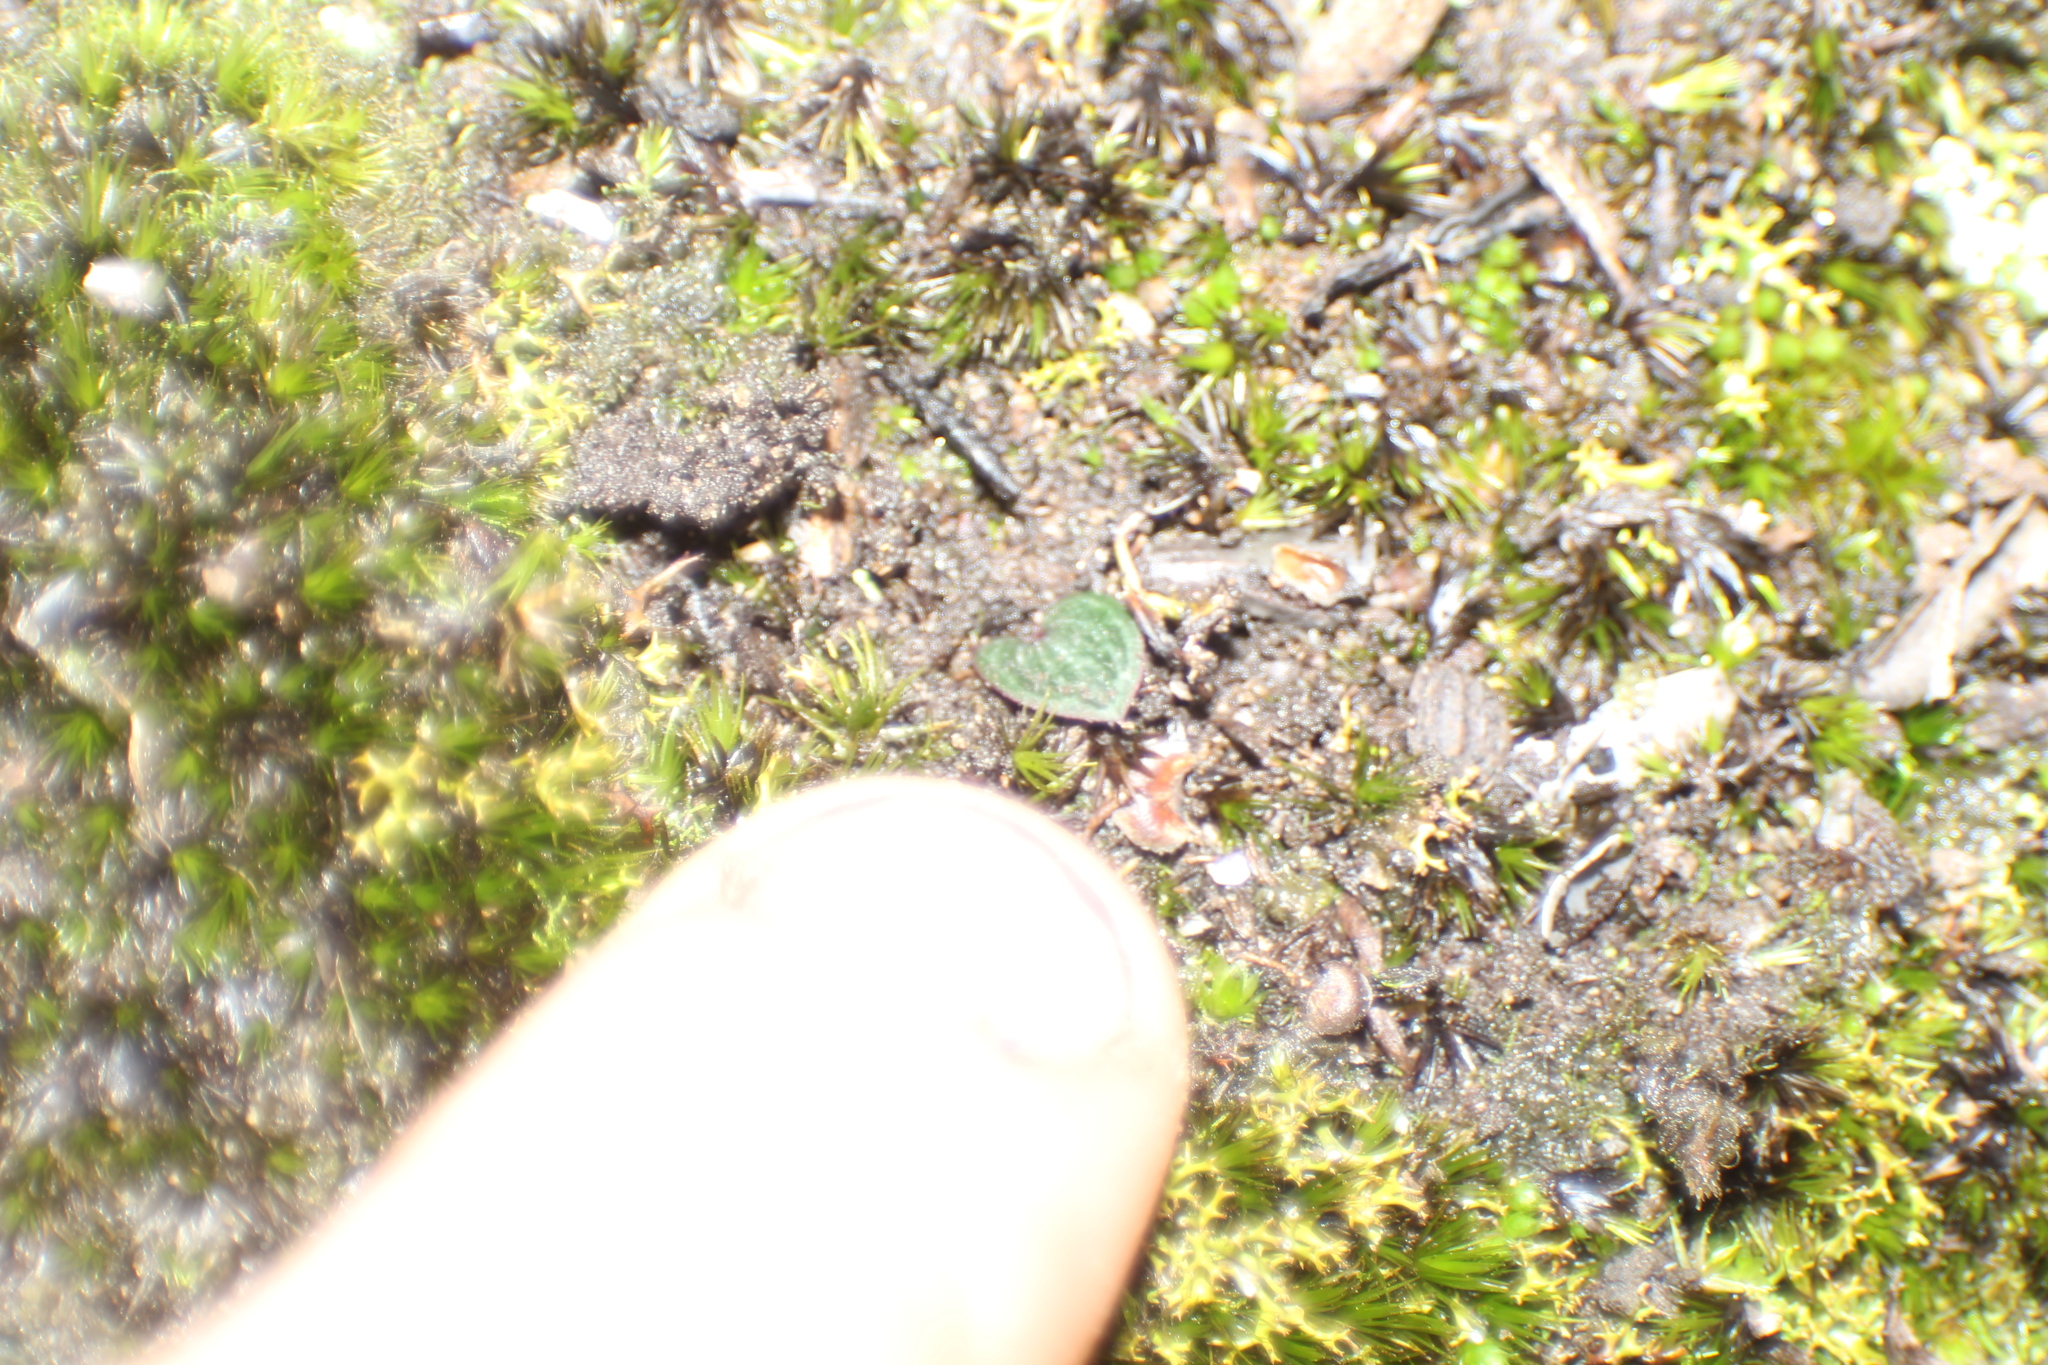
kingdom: Plantae
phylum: Tracheophyta
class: Liliopsida
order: Asparagales
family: Orchidaceae
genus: Drakaea
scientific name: Drakaea glyptodon
